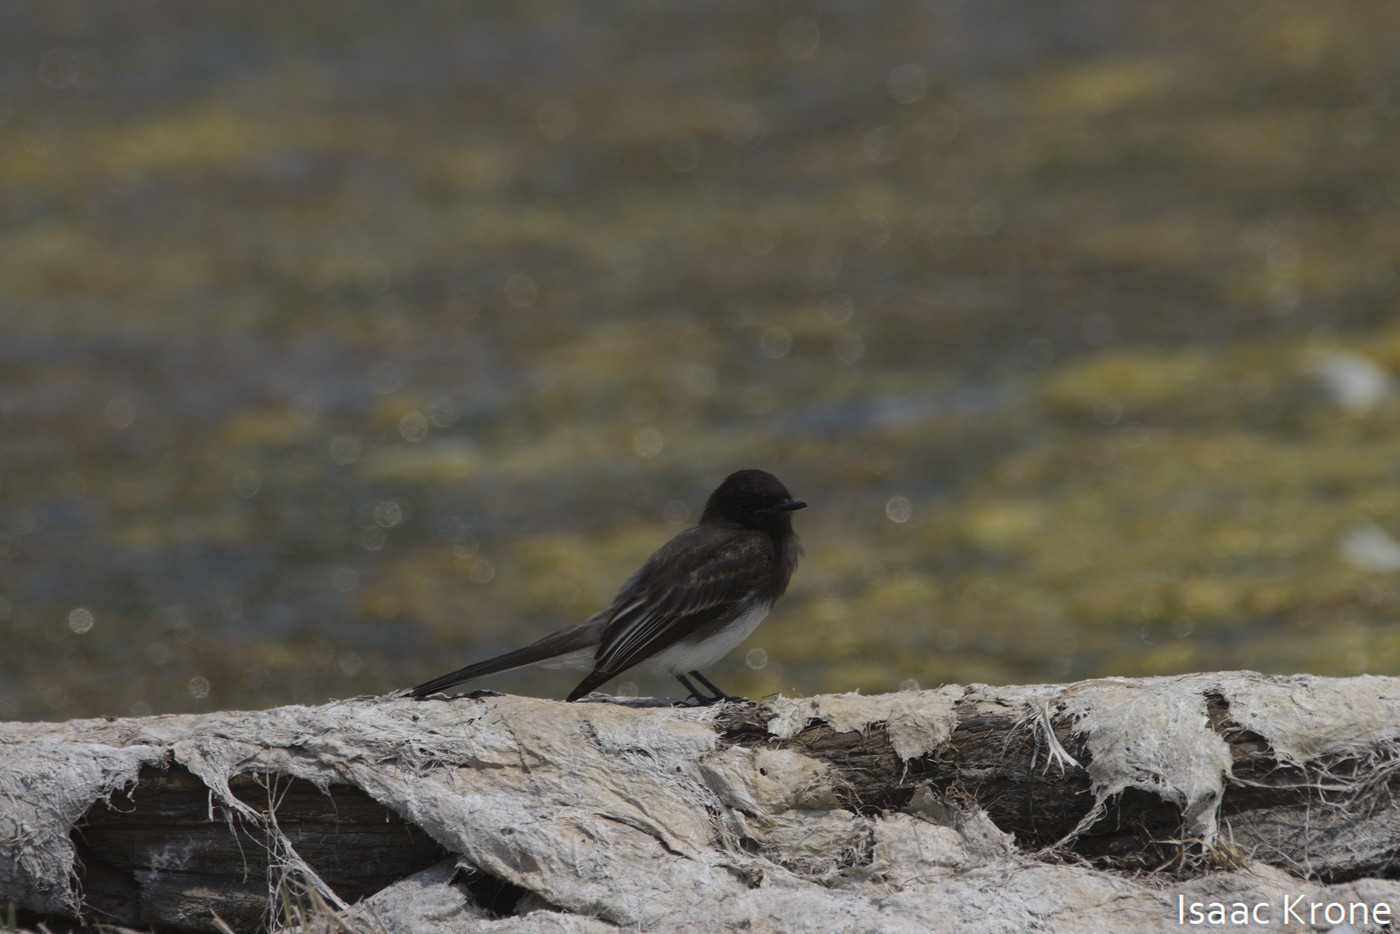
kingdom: Animalia
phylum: Chordata
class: Aves
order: Passeriformes
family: Tyrannidae
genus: Sayornis
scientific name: Sayornis nigricans
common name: Black phoebe
